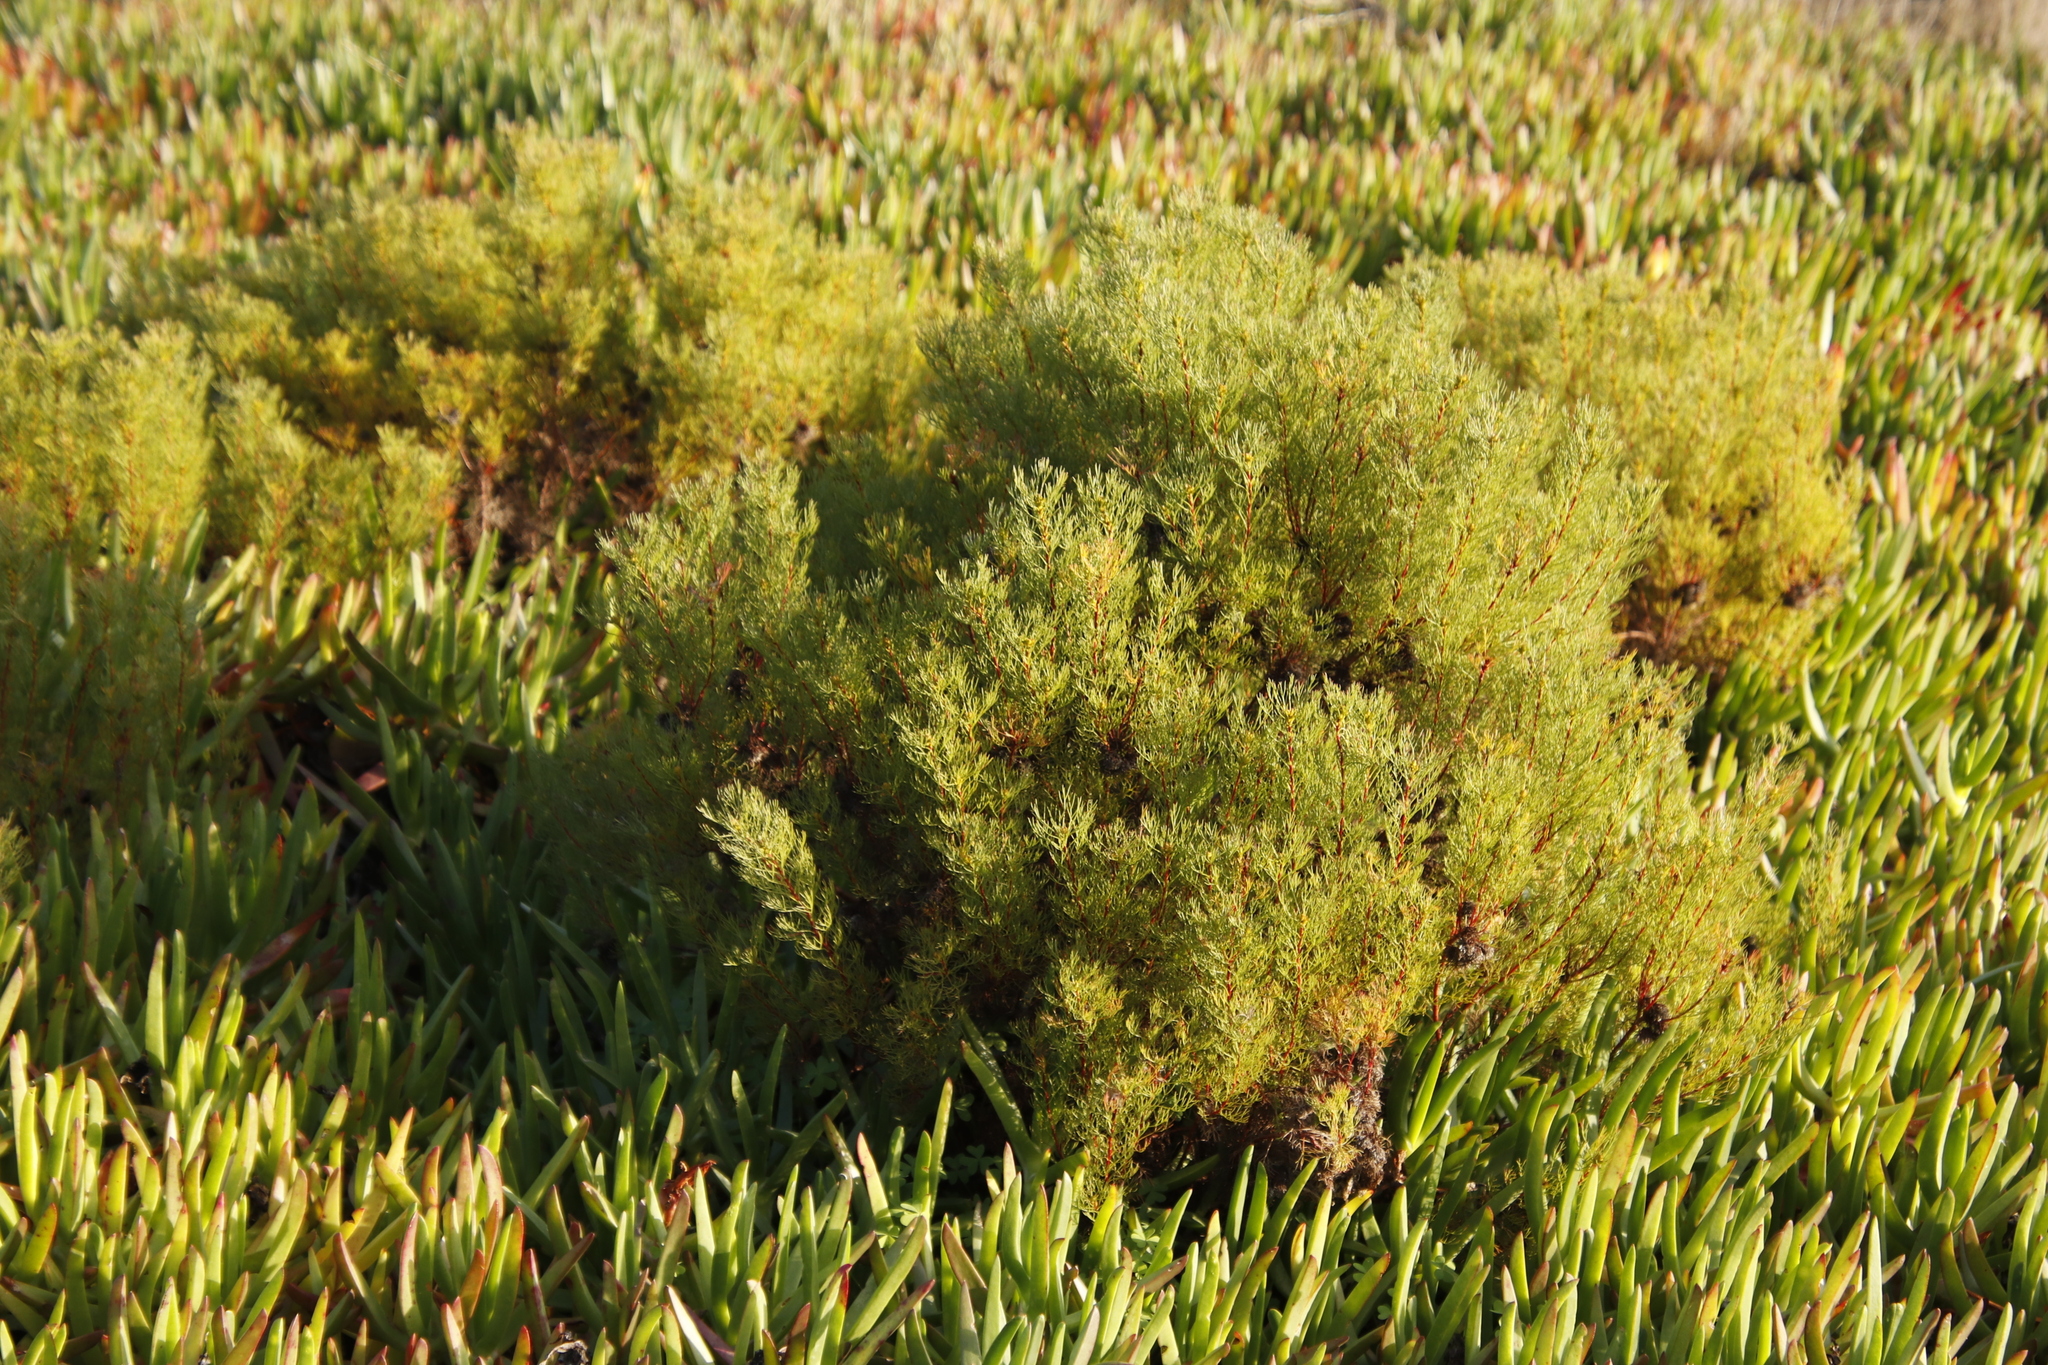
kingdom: Plantae
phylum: Tracheophyta
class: Magnoliopsida
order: Proteales
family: Proteaceae
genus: Serruria
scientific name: Serruria
